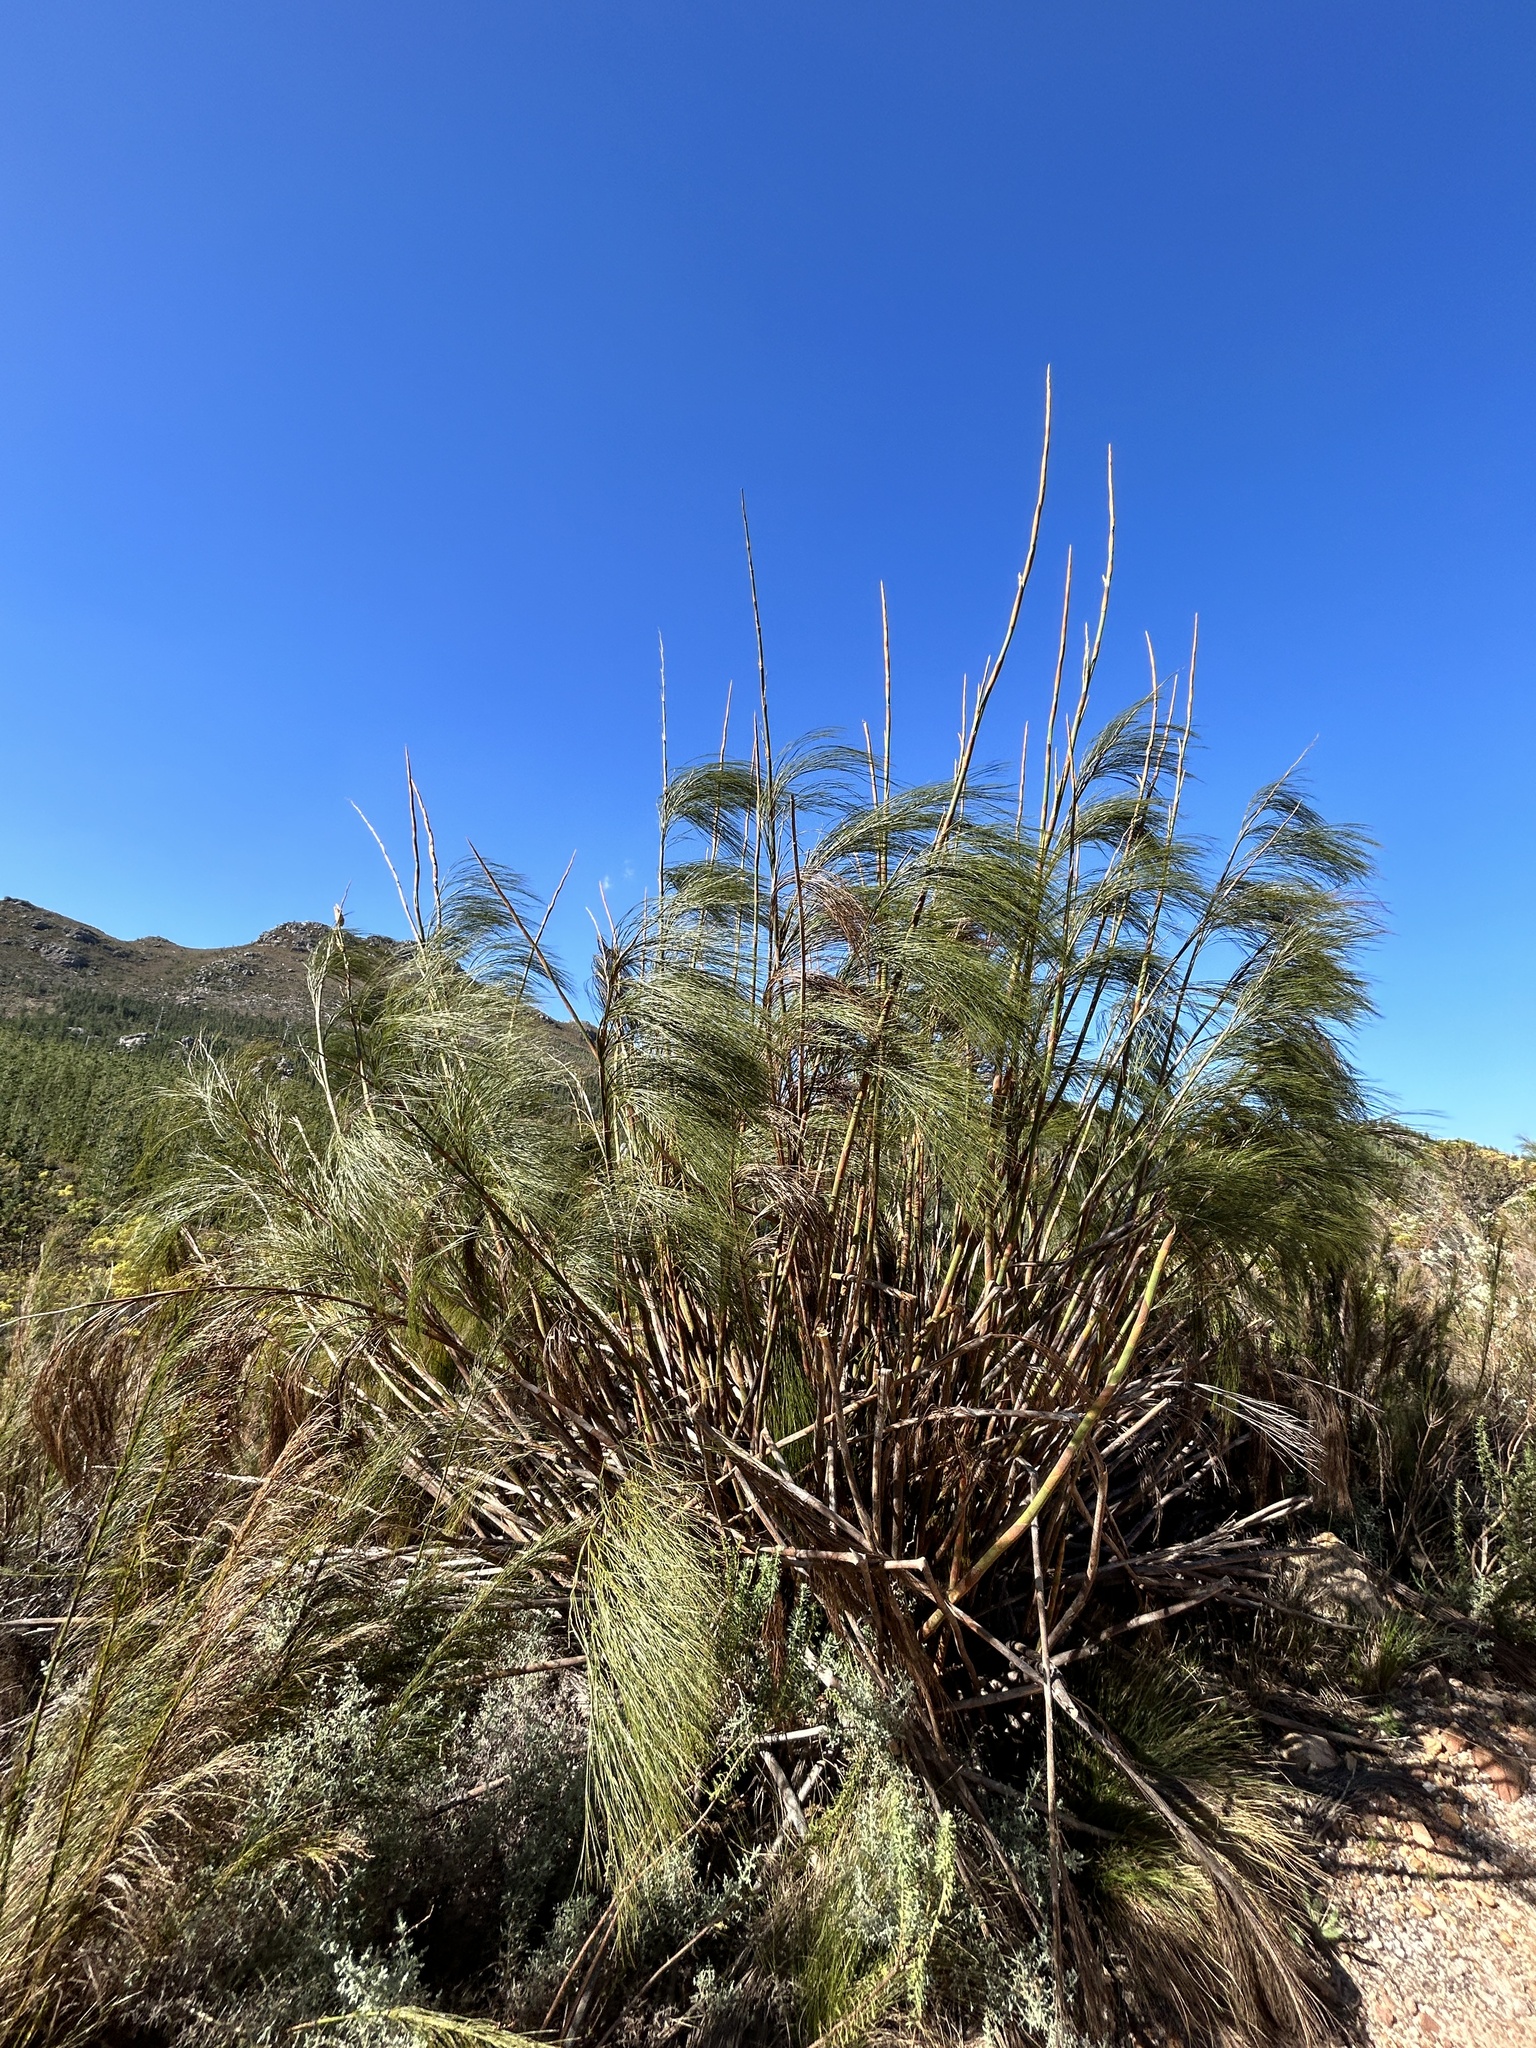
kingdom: Plantae
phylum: Tracheophyta
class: Liliopsida
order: Poales
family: Restionaceae
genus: Cannomois
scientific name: Cannomois grandis
